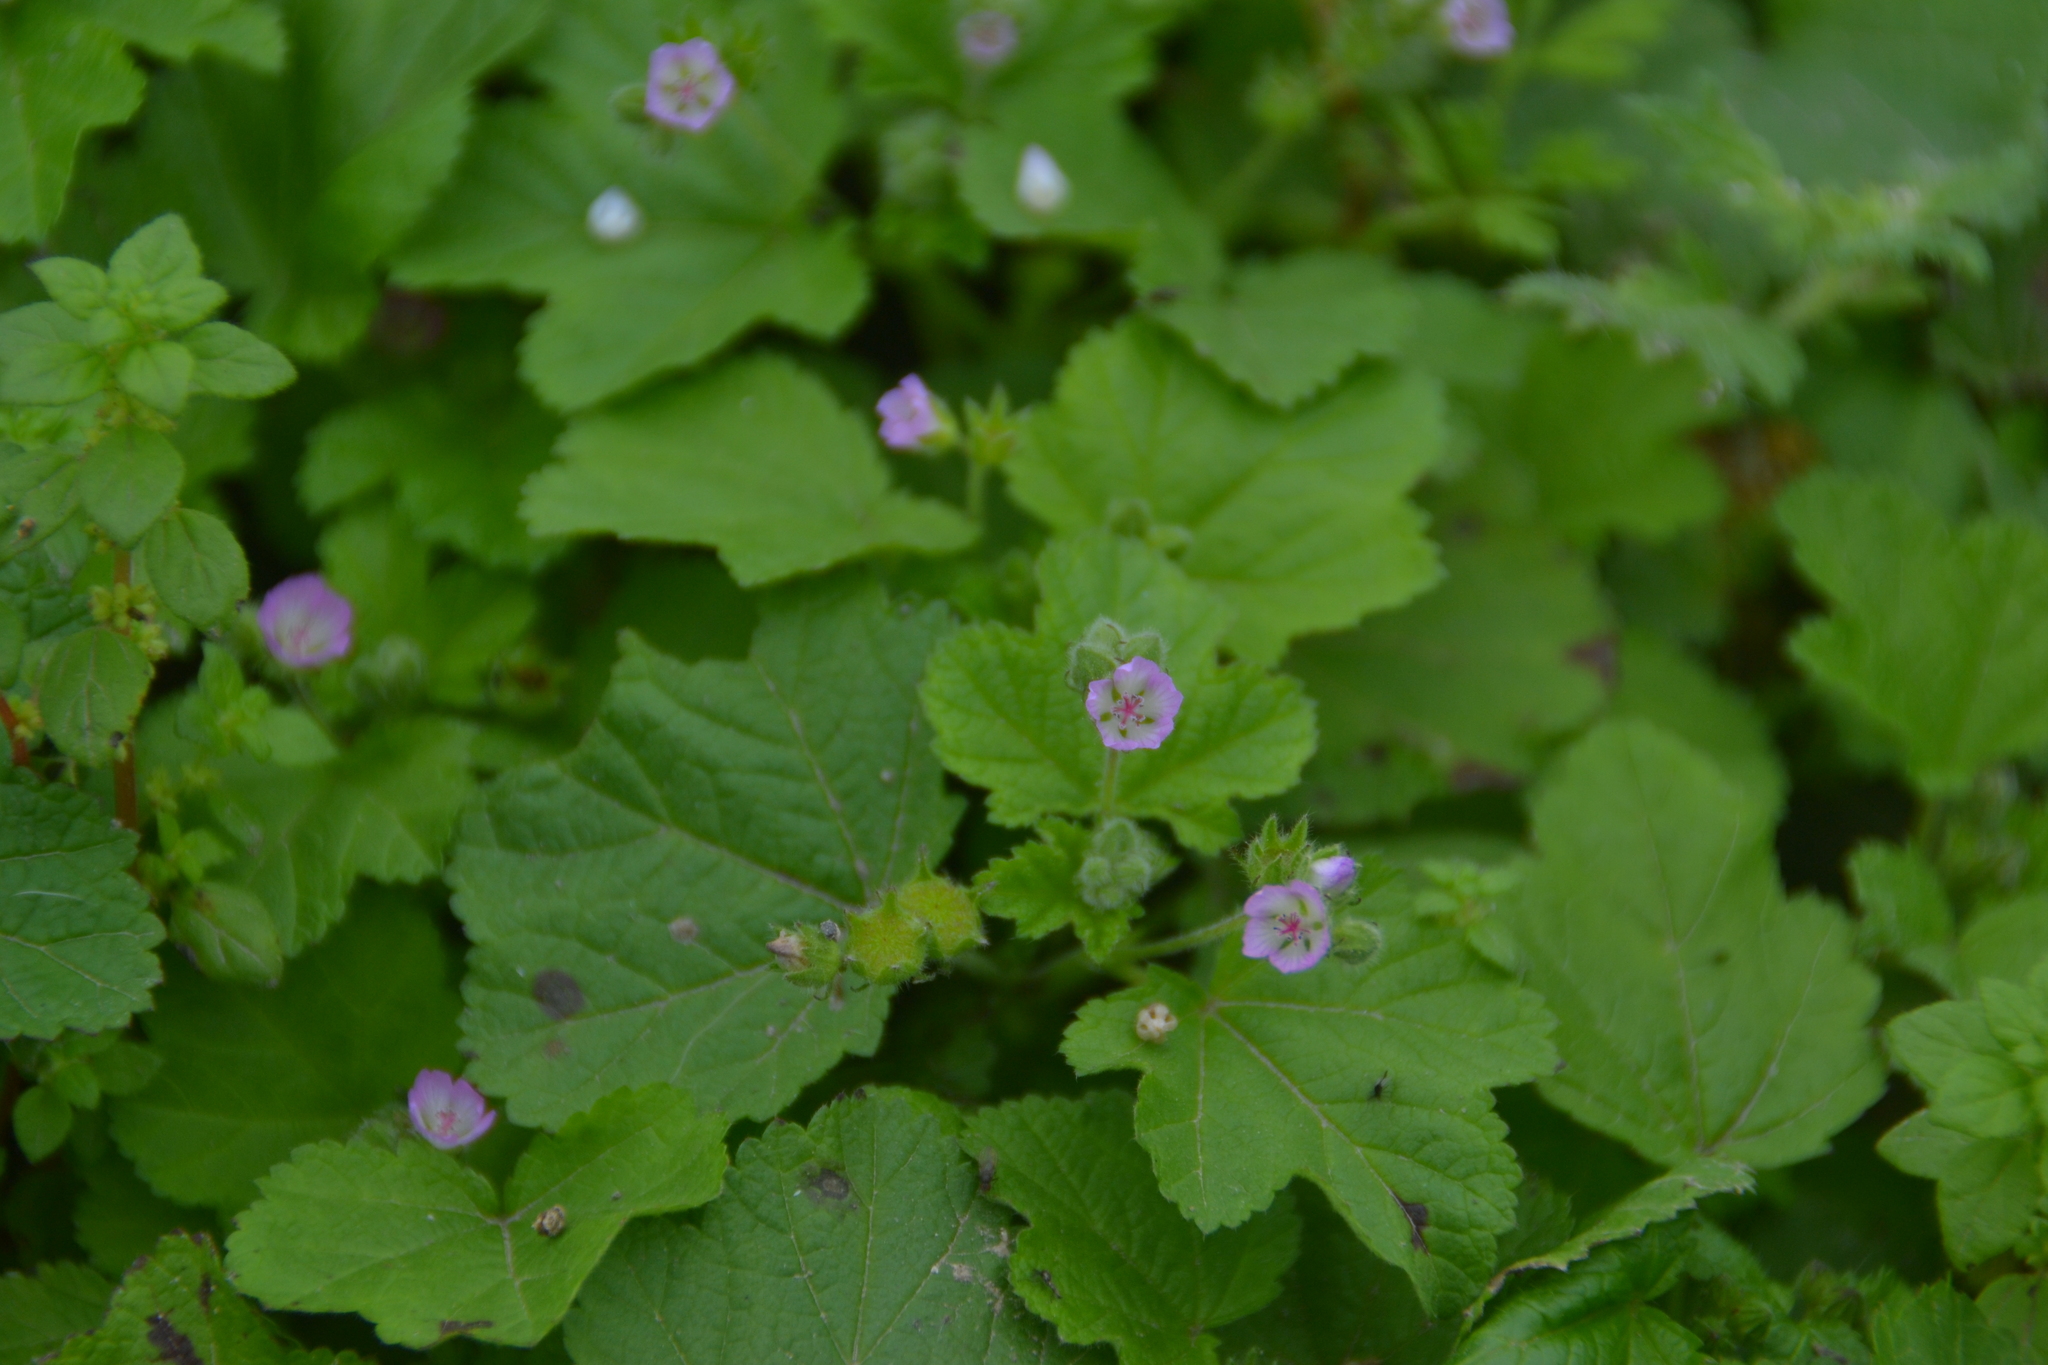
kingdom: Plantae
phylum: Tracheophyta
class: Magnoliopsida
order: Malvales
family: Malvaceae
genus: Fuertesimalva
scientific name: Fuertesimalva limensis
